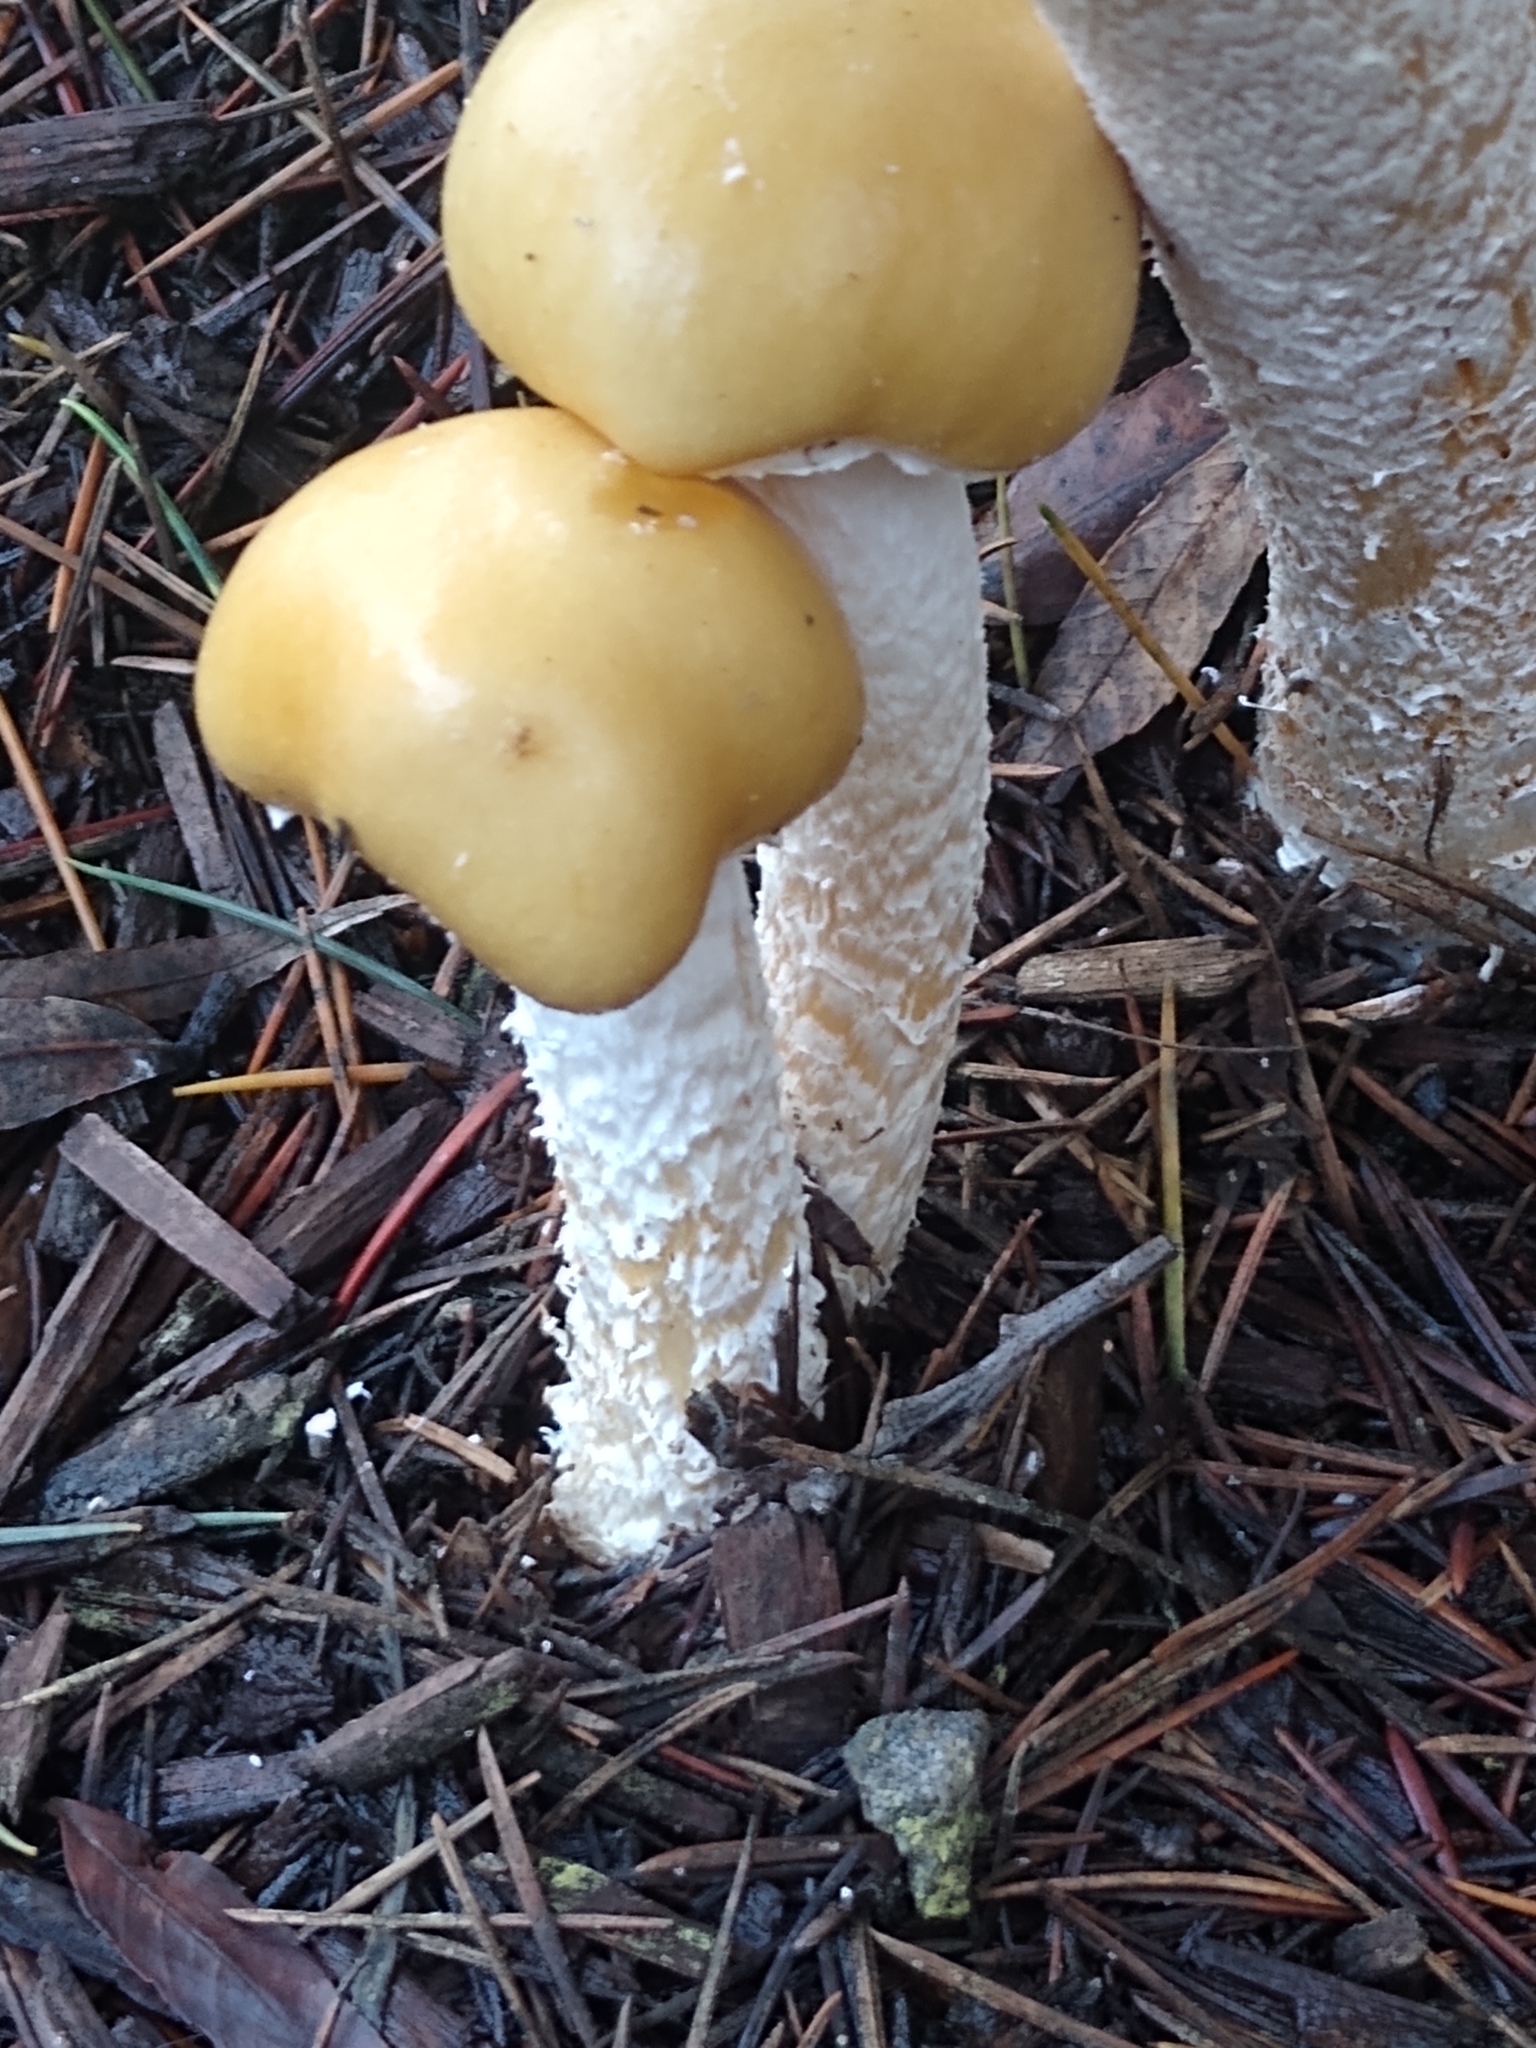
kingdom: Fungi
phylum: Basidiomycota
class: Agaricomycetes
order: Agaricales
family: Strophariaceae
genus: Stropharia
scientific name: Stropharia ambigua
